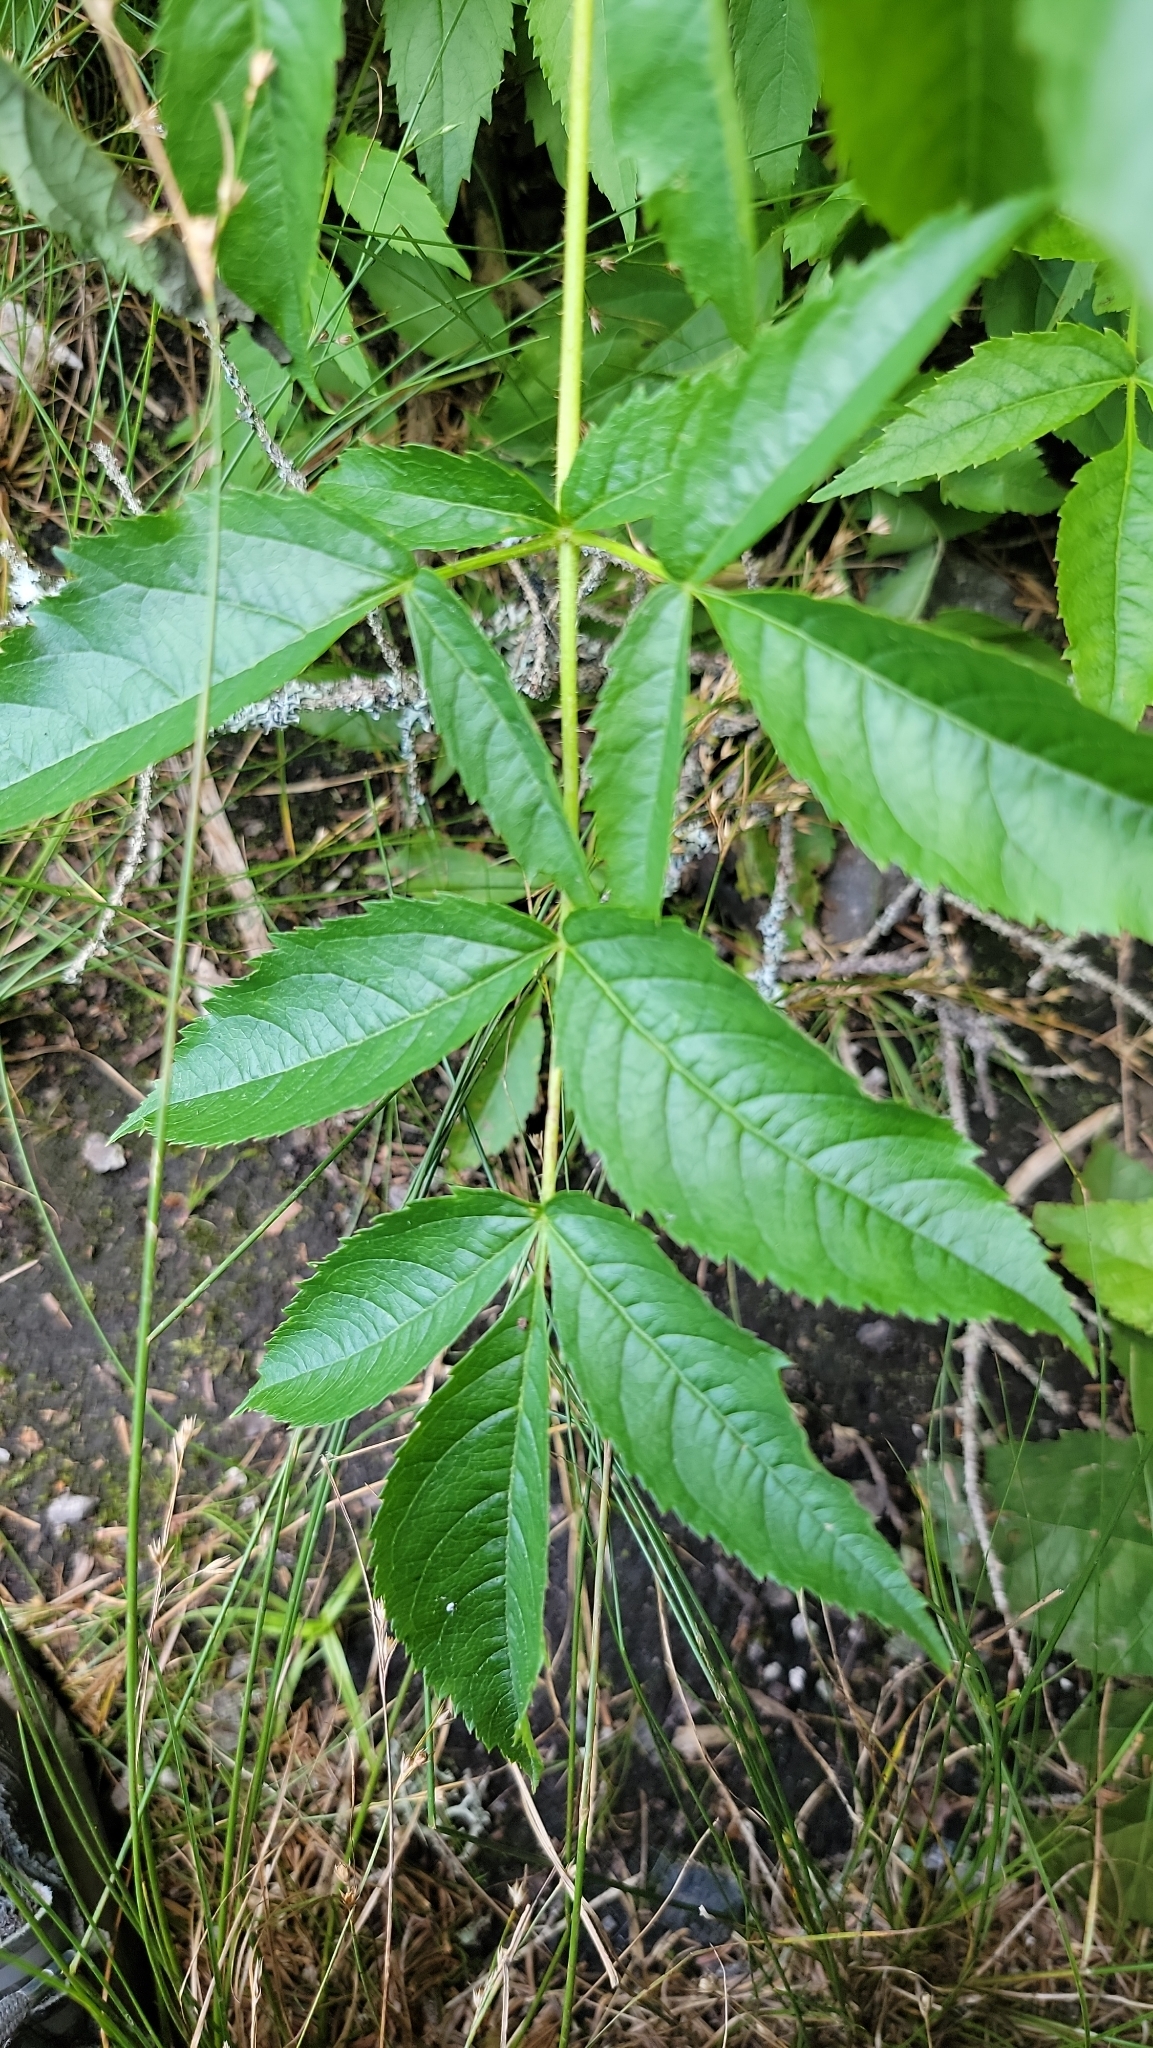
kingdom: Plantae
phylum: Tracheophyta
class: Magnoliopsida
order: Apiales
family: Araliaceae
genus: Aralia
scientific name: Aralia hispida
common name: Bristly sarsaparilla
